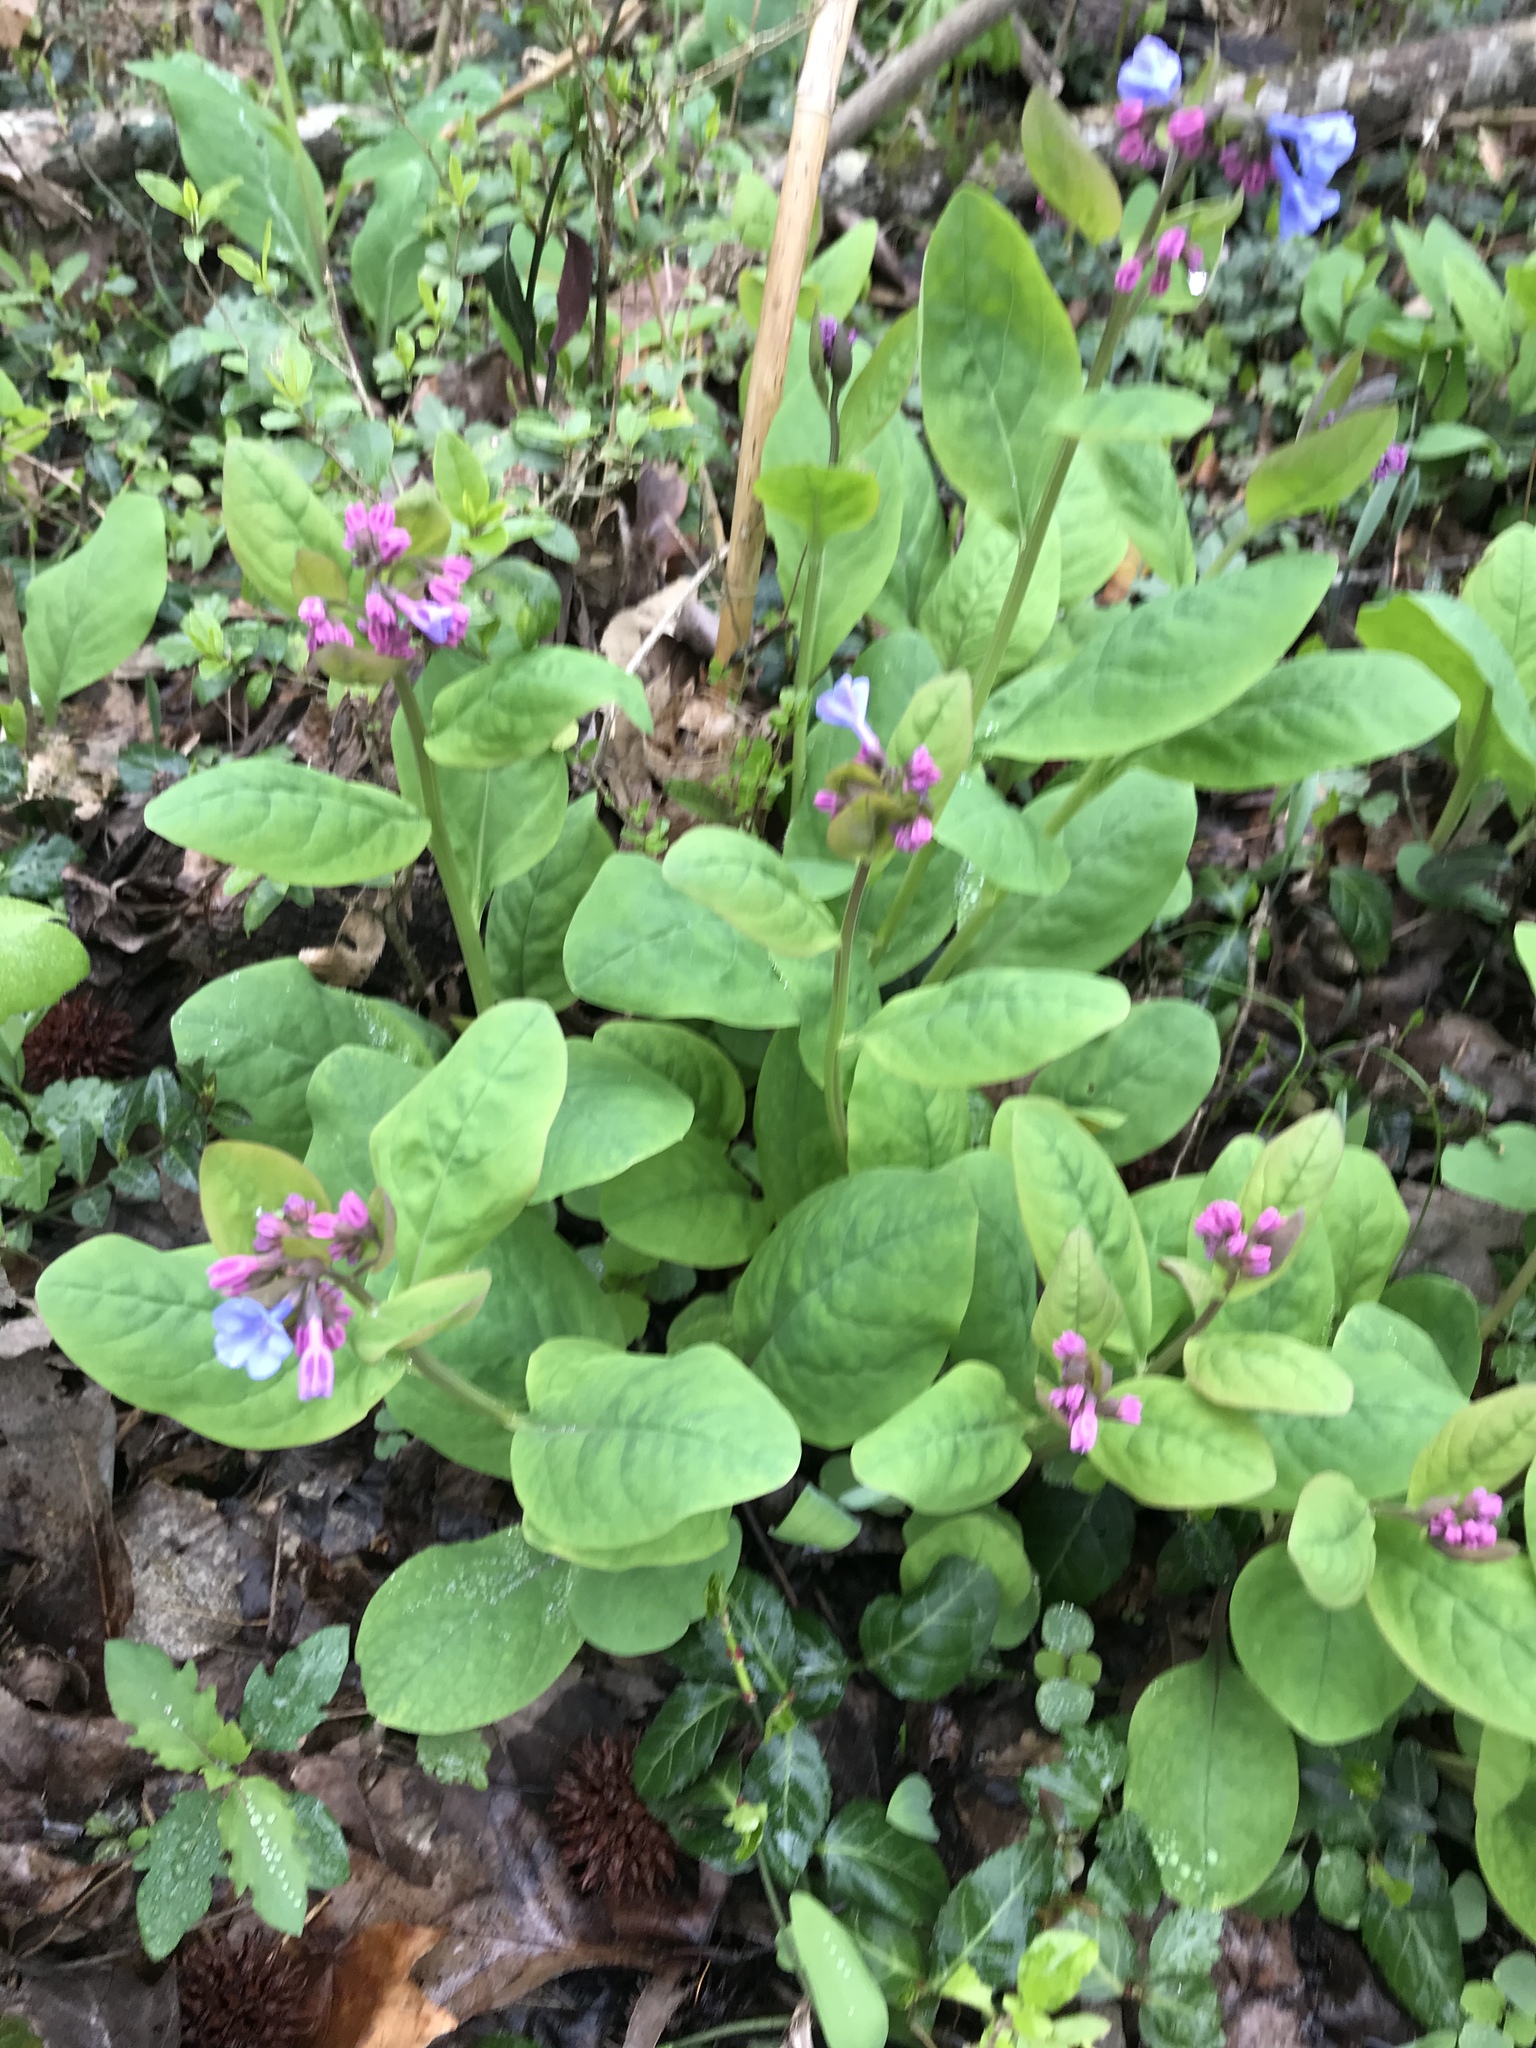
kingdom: Plantae
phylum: Tracheophyta
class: Magnoliopsida
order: Boraginales
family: Boraginaceae
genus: Mertensia
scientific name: Mertensia virginica
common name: Virginia bluebells
